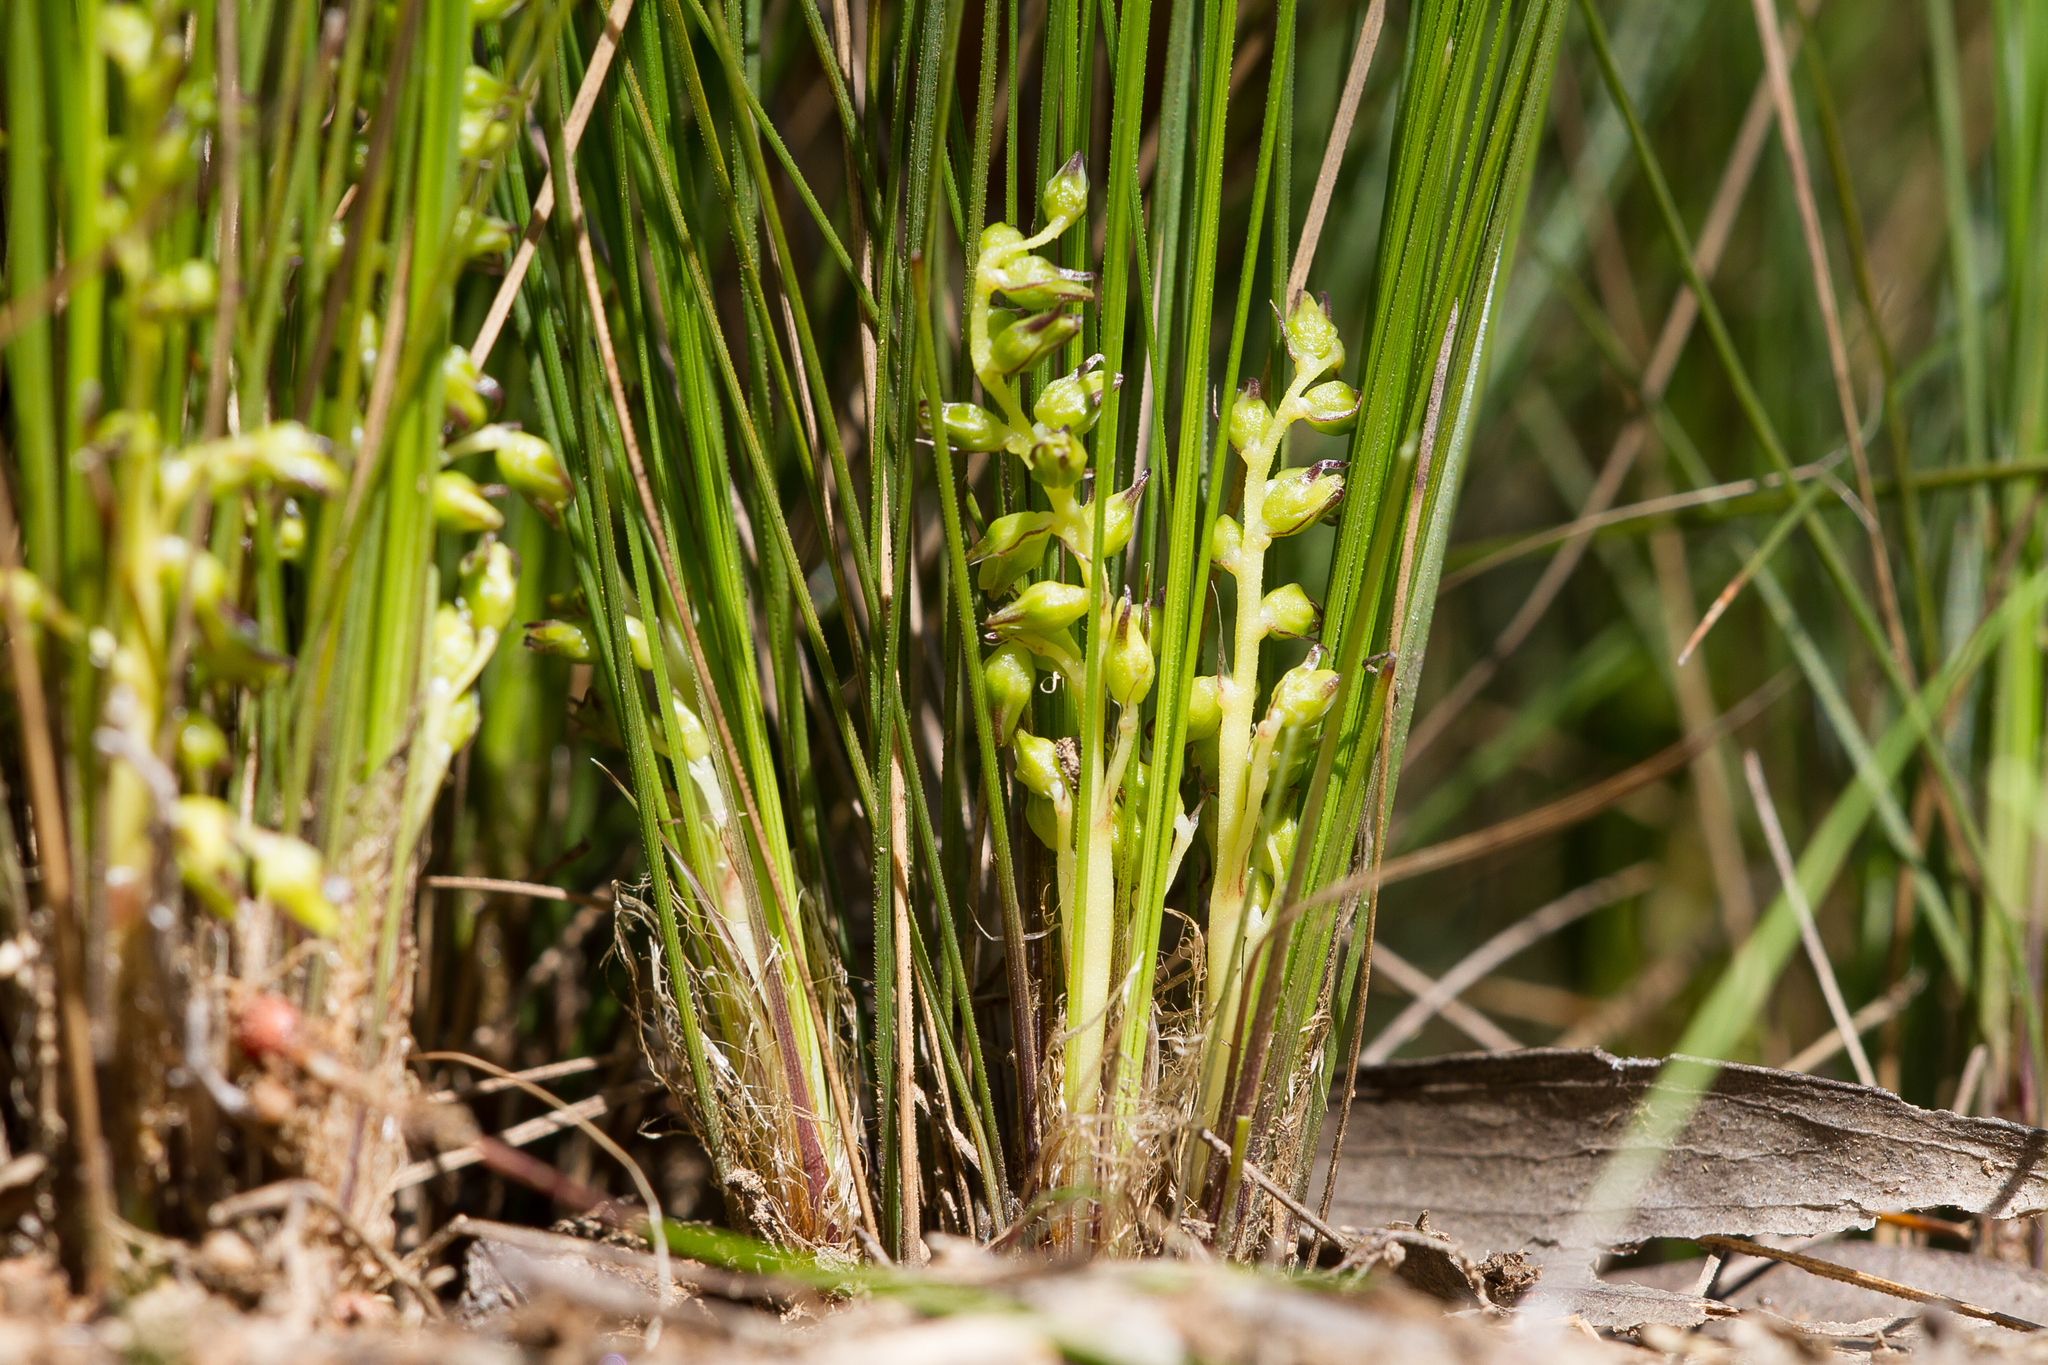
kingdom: Plantae
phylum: Tracheophyta
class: Liliopsida
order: Asparagales
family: Asparagaceae
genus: Lomandra
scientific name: Lomandra fibrata
